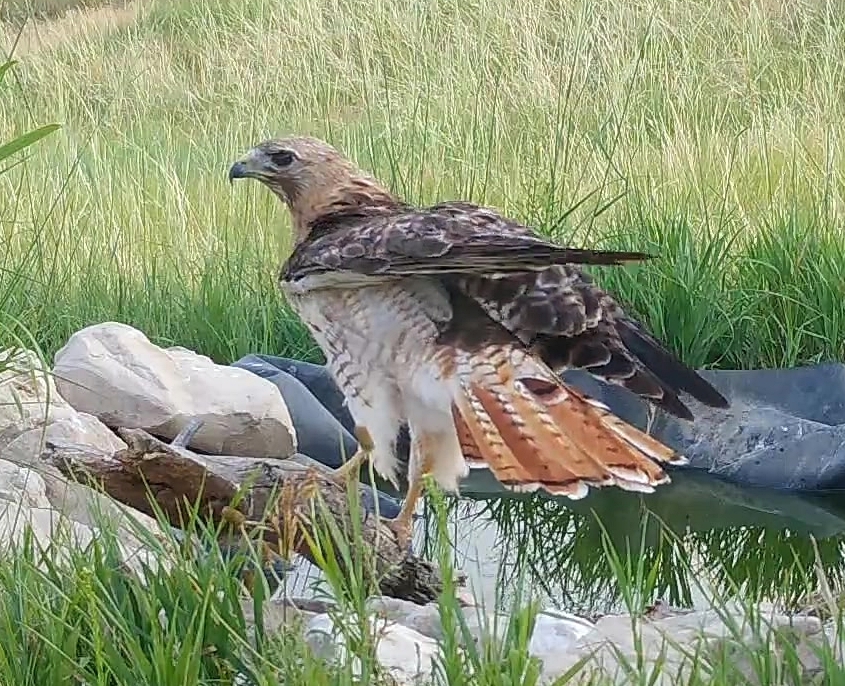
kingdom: Animalia
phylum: Chordata
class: Aves
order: Accipitriformes
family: Accipitridae
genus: Buteo
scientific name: Buteo jamaicensis
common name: Red-tailed hawk
